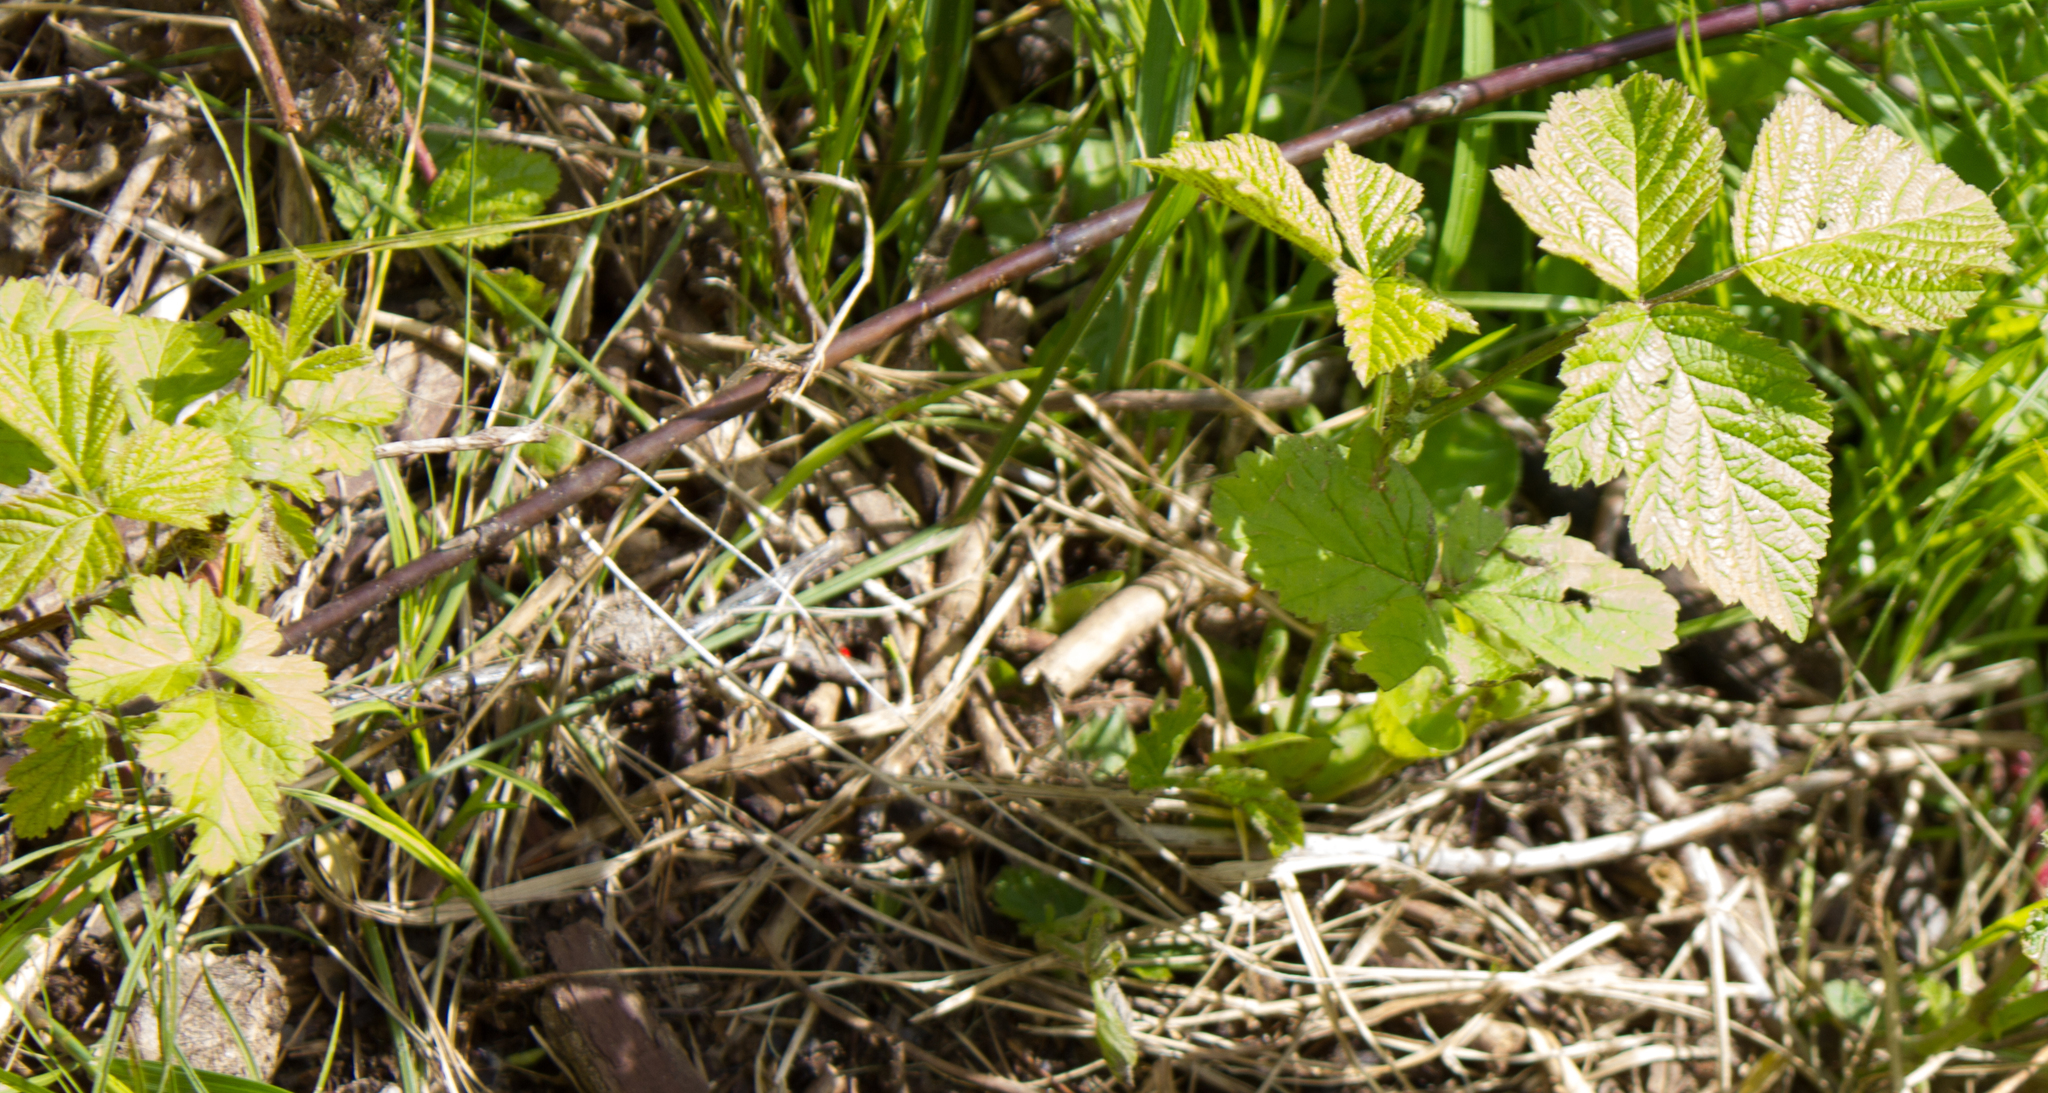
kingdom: Plantae
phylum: Tracheophyta
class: Magnoliopsida
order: Rosales
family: Rosaceae
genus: Rubus
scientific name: Rubus caesius
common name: Dewberry
